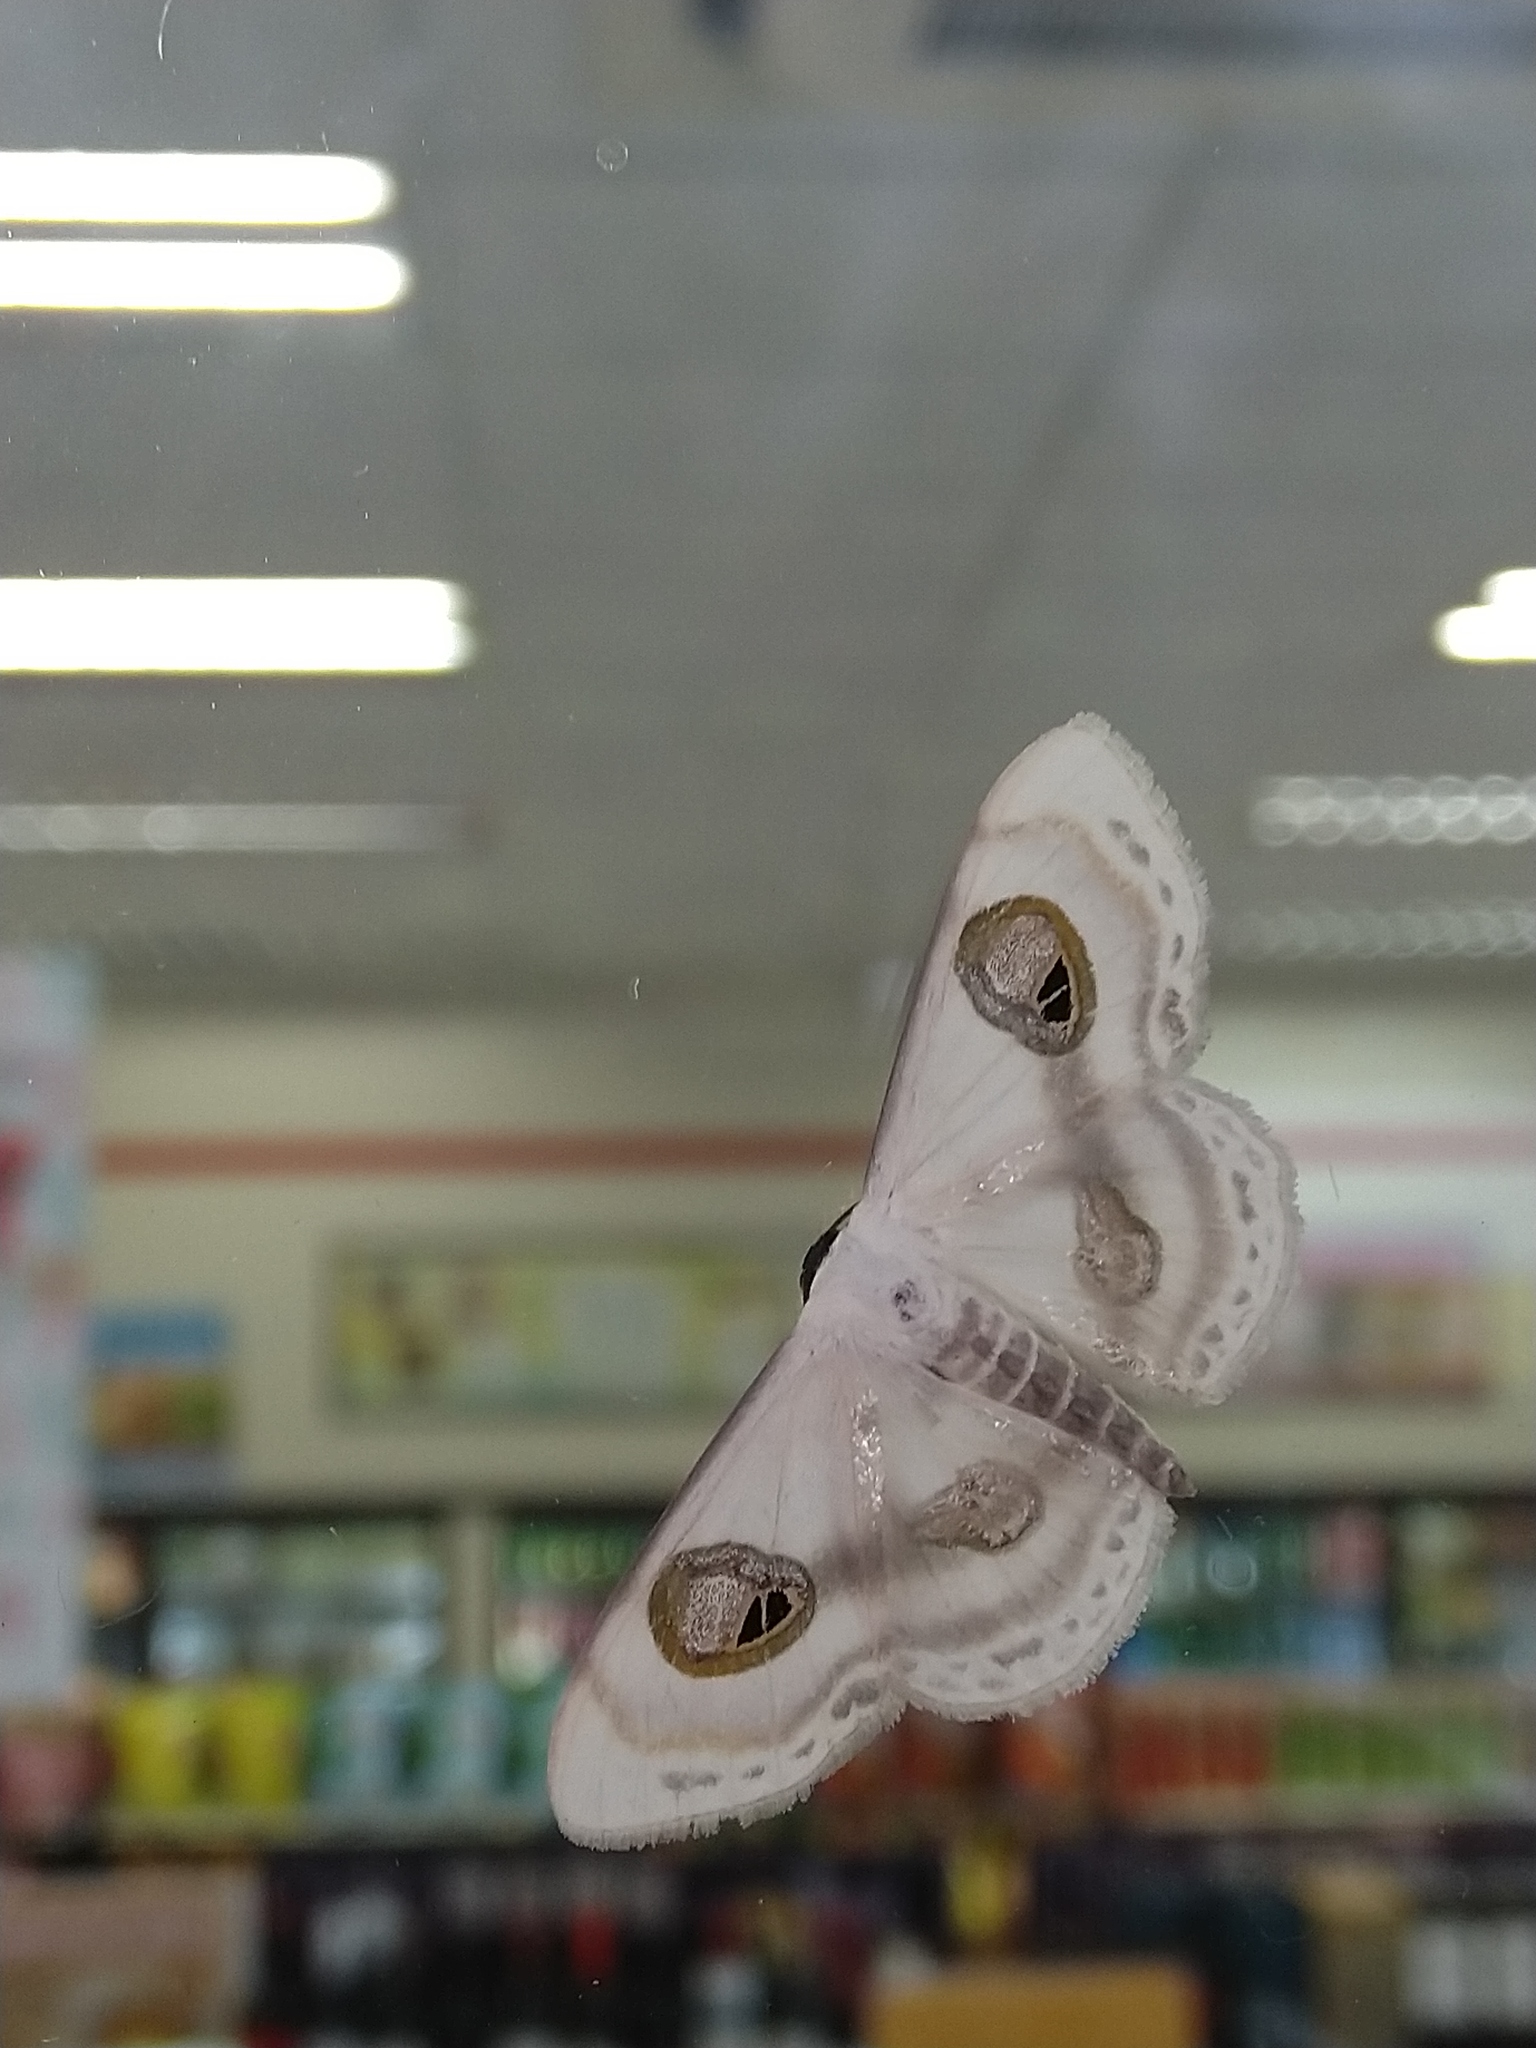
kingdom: Animalia
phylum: Arthropoda
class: Insecta
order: Lepidoptera
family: Geometridae
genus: Problepsis
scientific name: Problepsis conjunctiva
